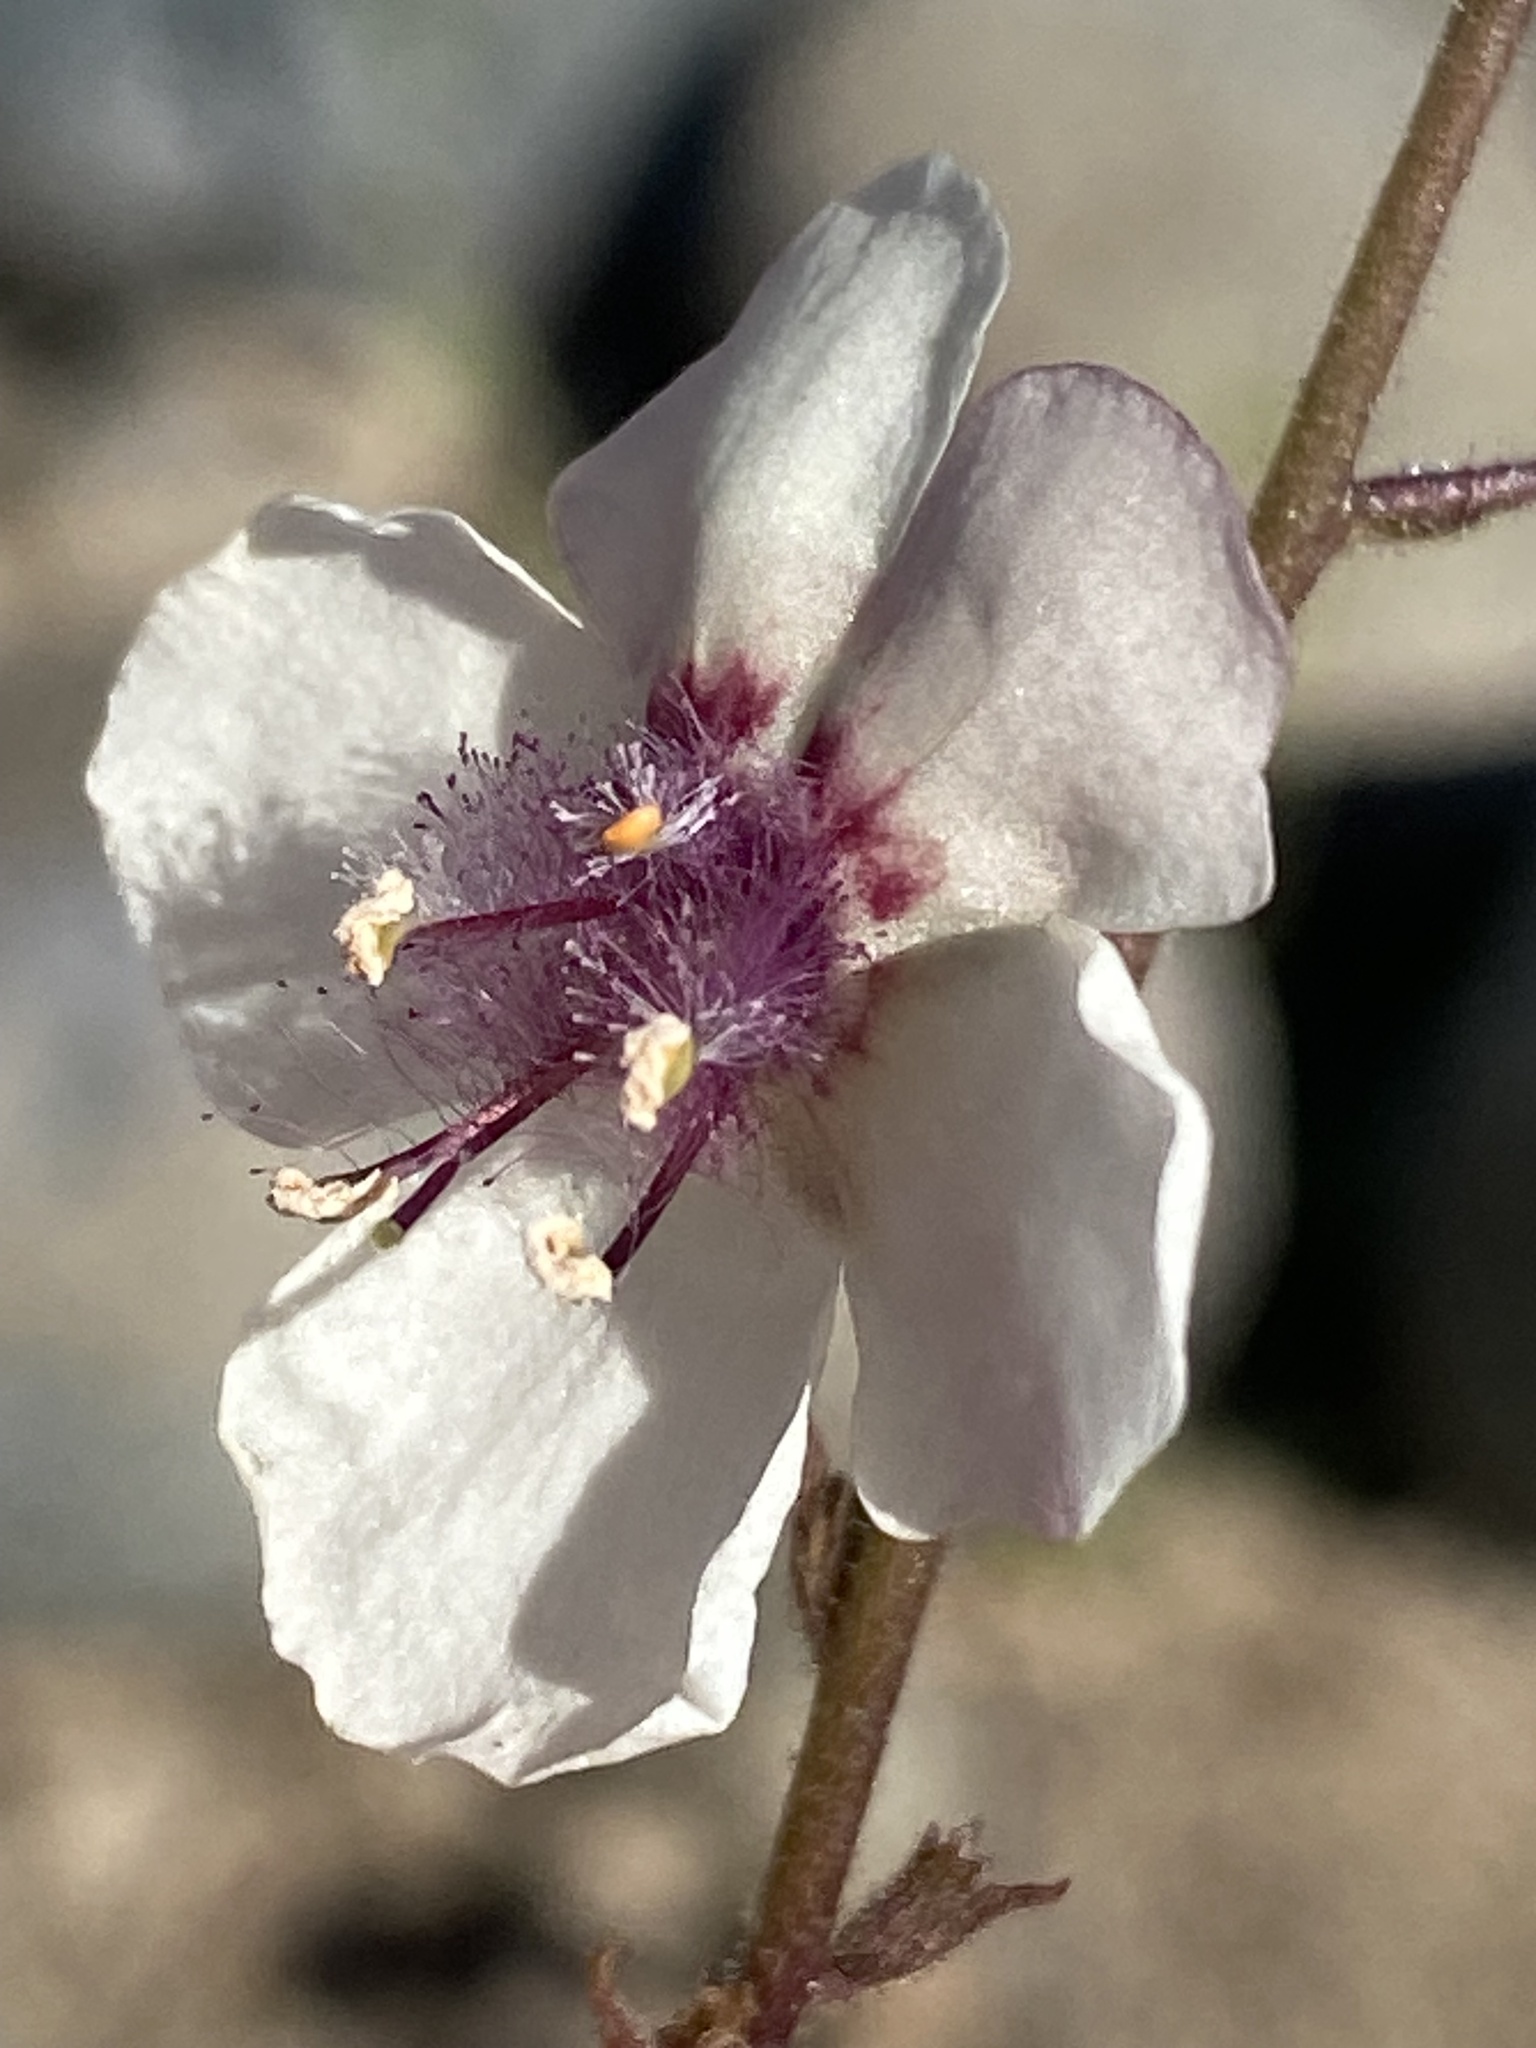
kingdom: Plantae
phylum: Tracheophyta
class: Magnoliopsida
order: Lamiales
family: Scrophulariaceae
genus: Verbascum
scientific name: Verbascum blattaria
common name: Moth mullein
